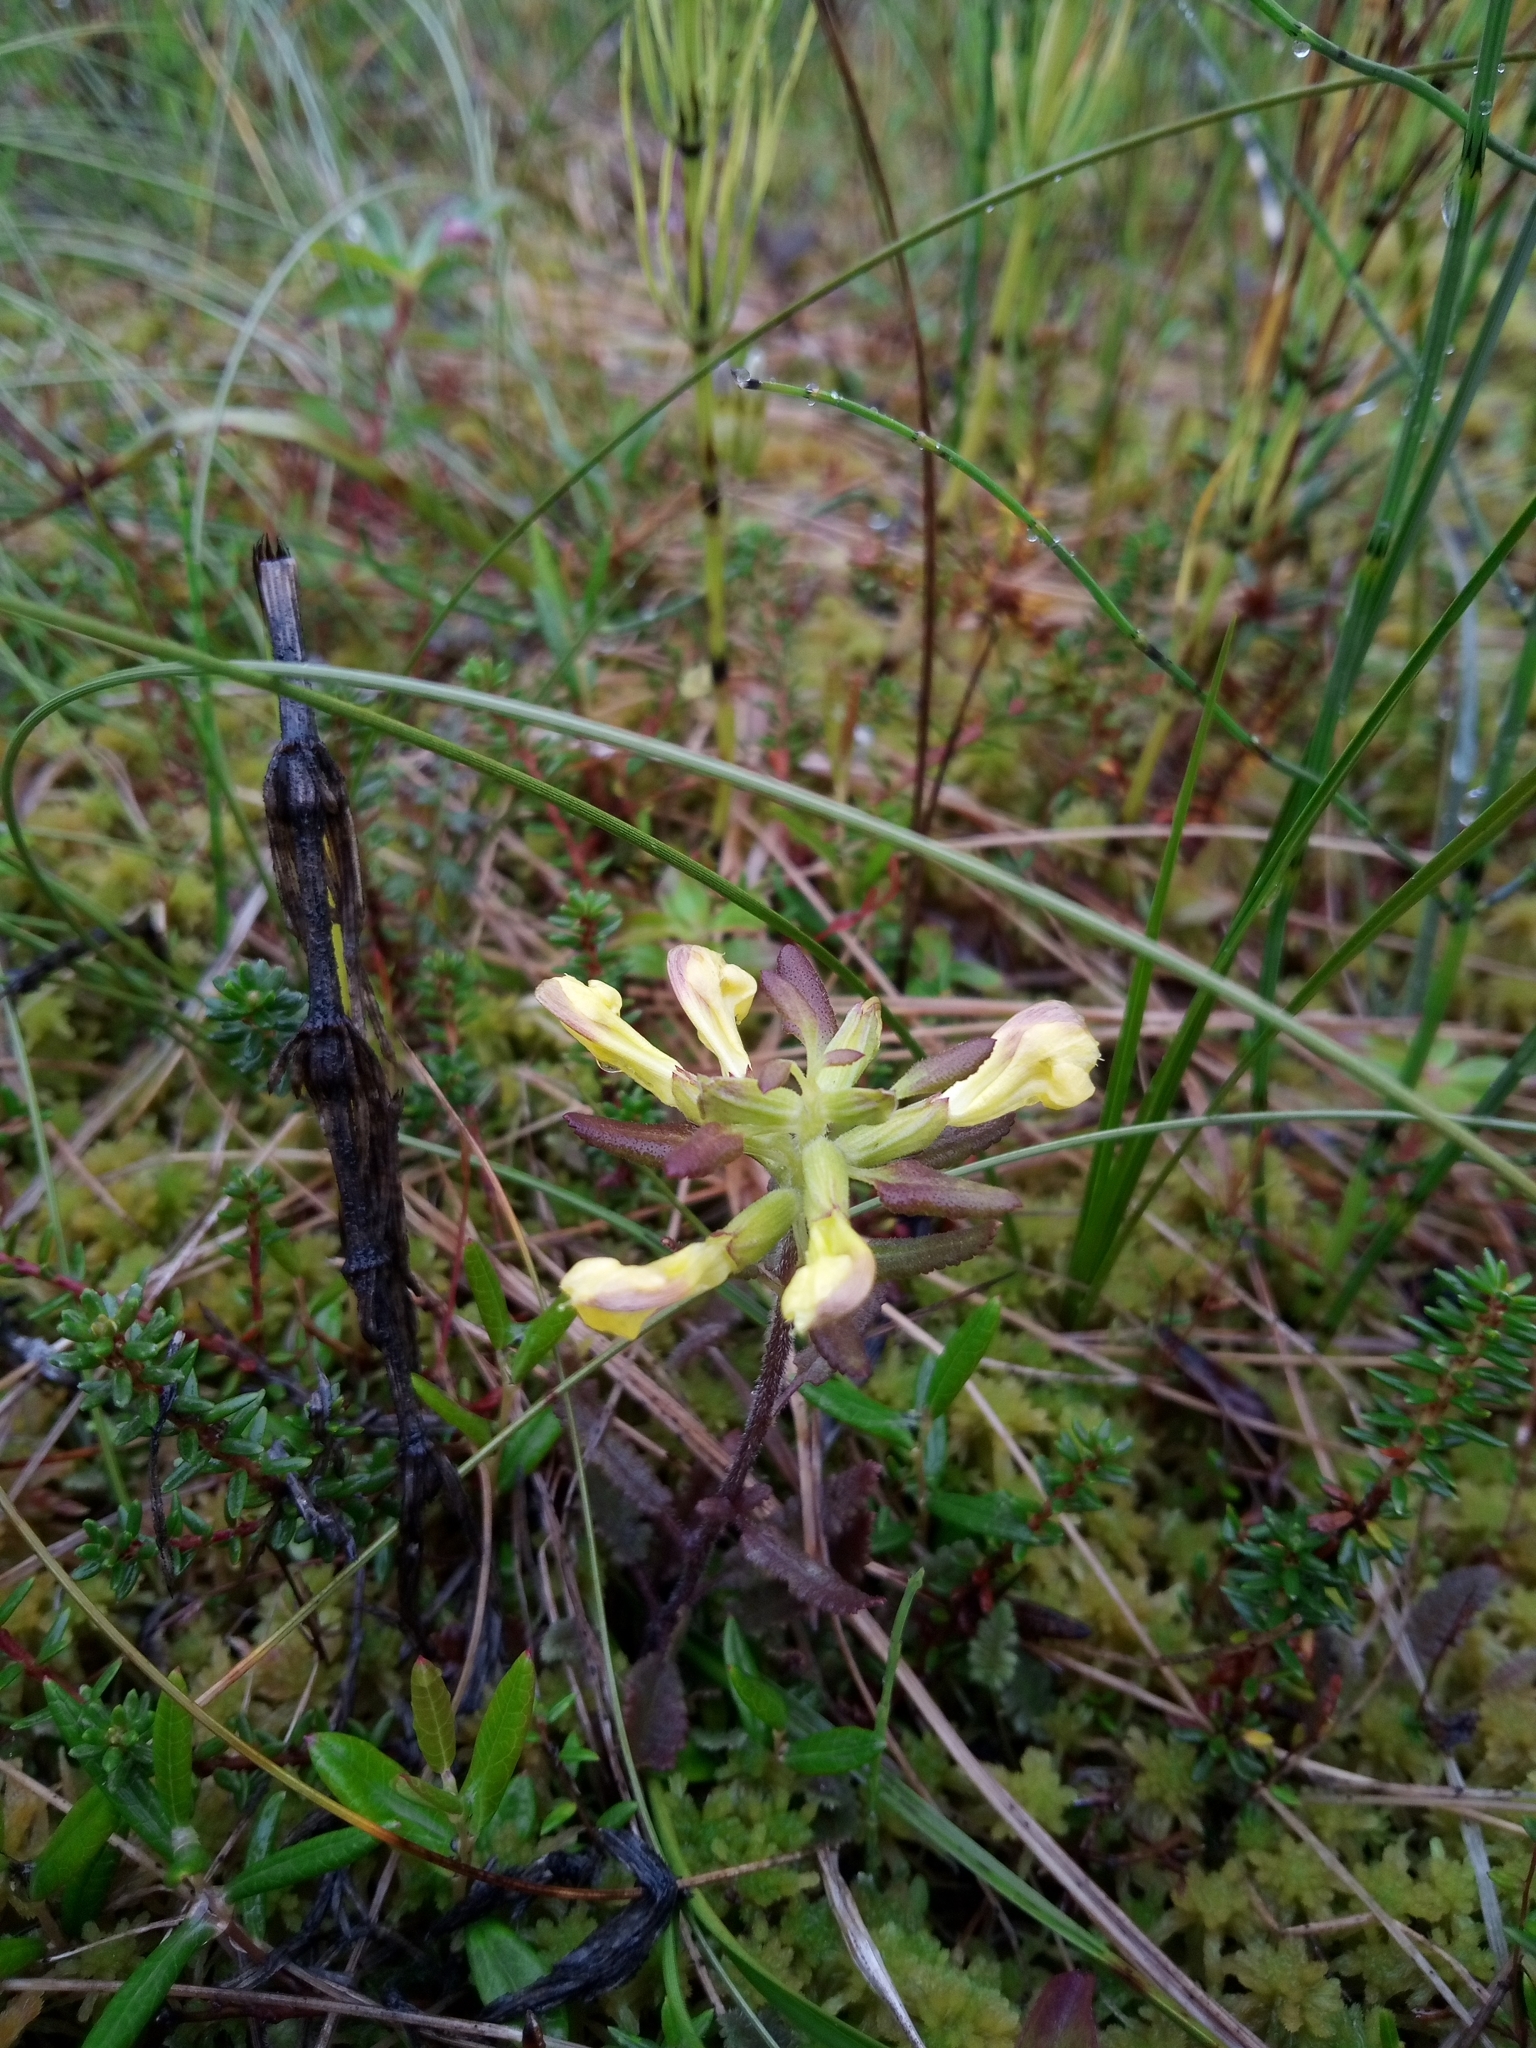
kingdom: Plantae
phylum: Tracheophyta
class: Magnoliopsida
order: Lamiales
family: Orobanchaceae
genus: Pedicularis
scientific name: Pedicularis labradorica
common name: Labrador lousewort
